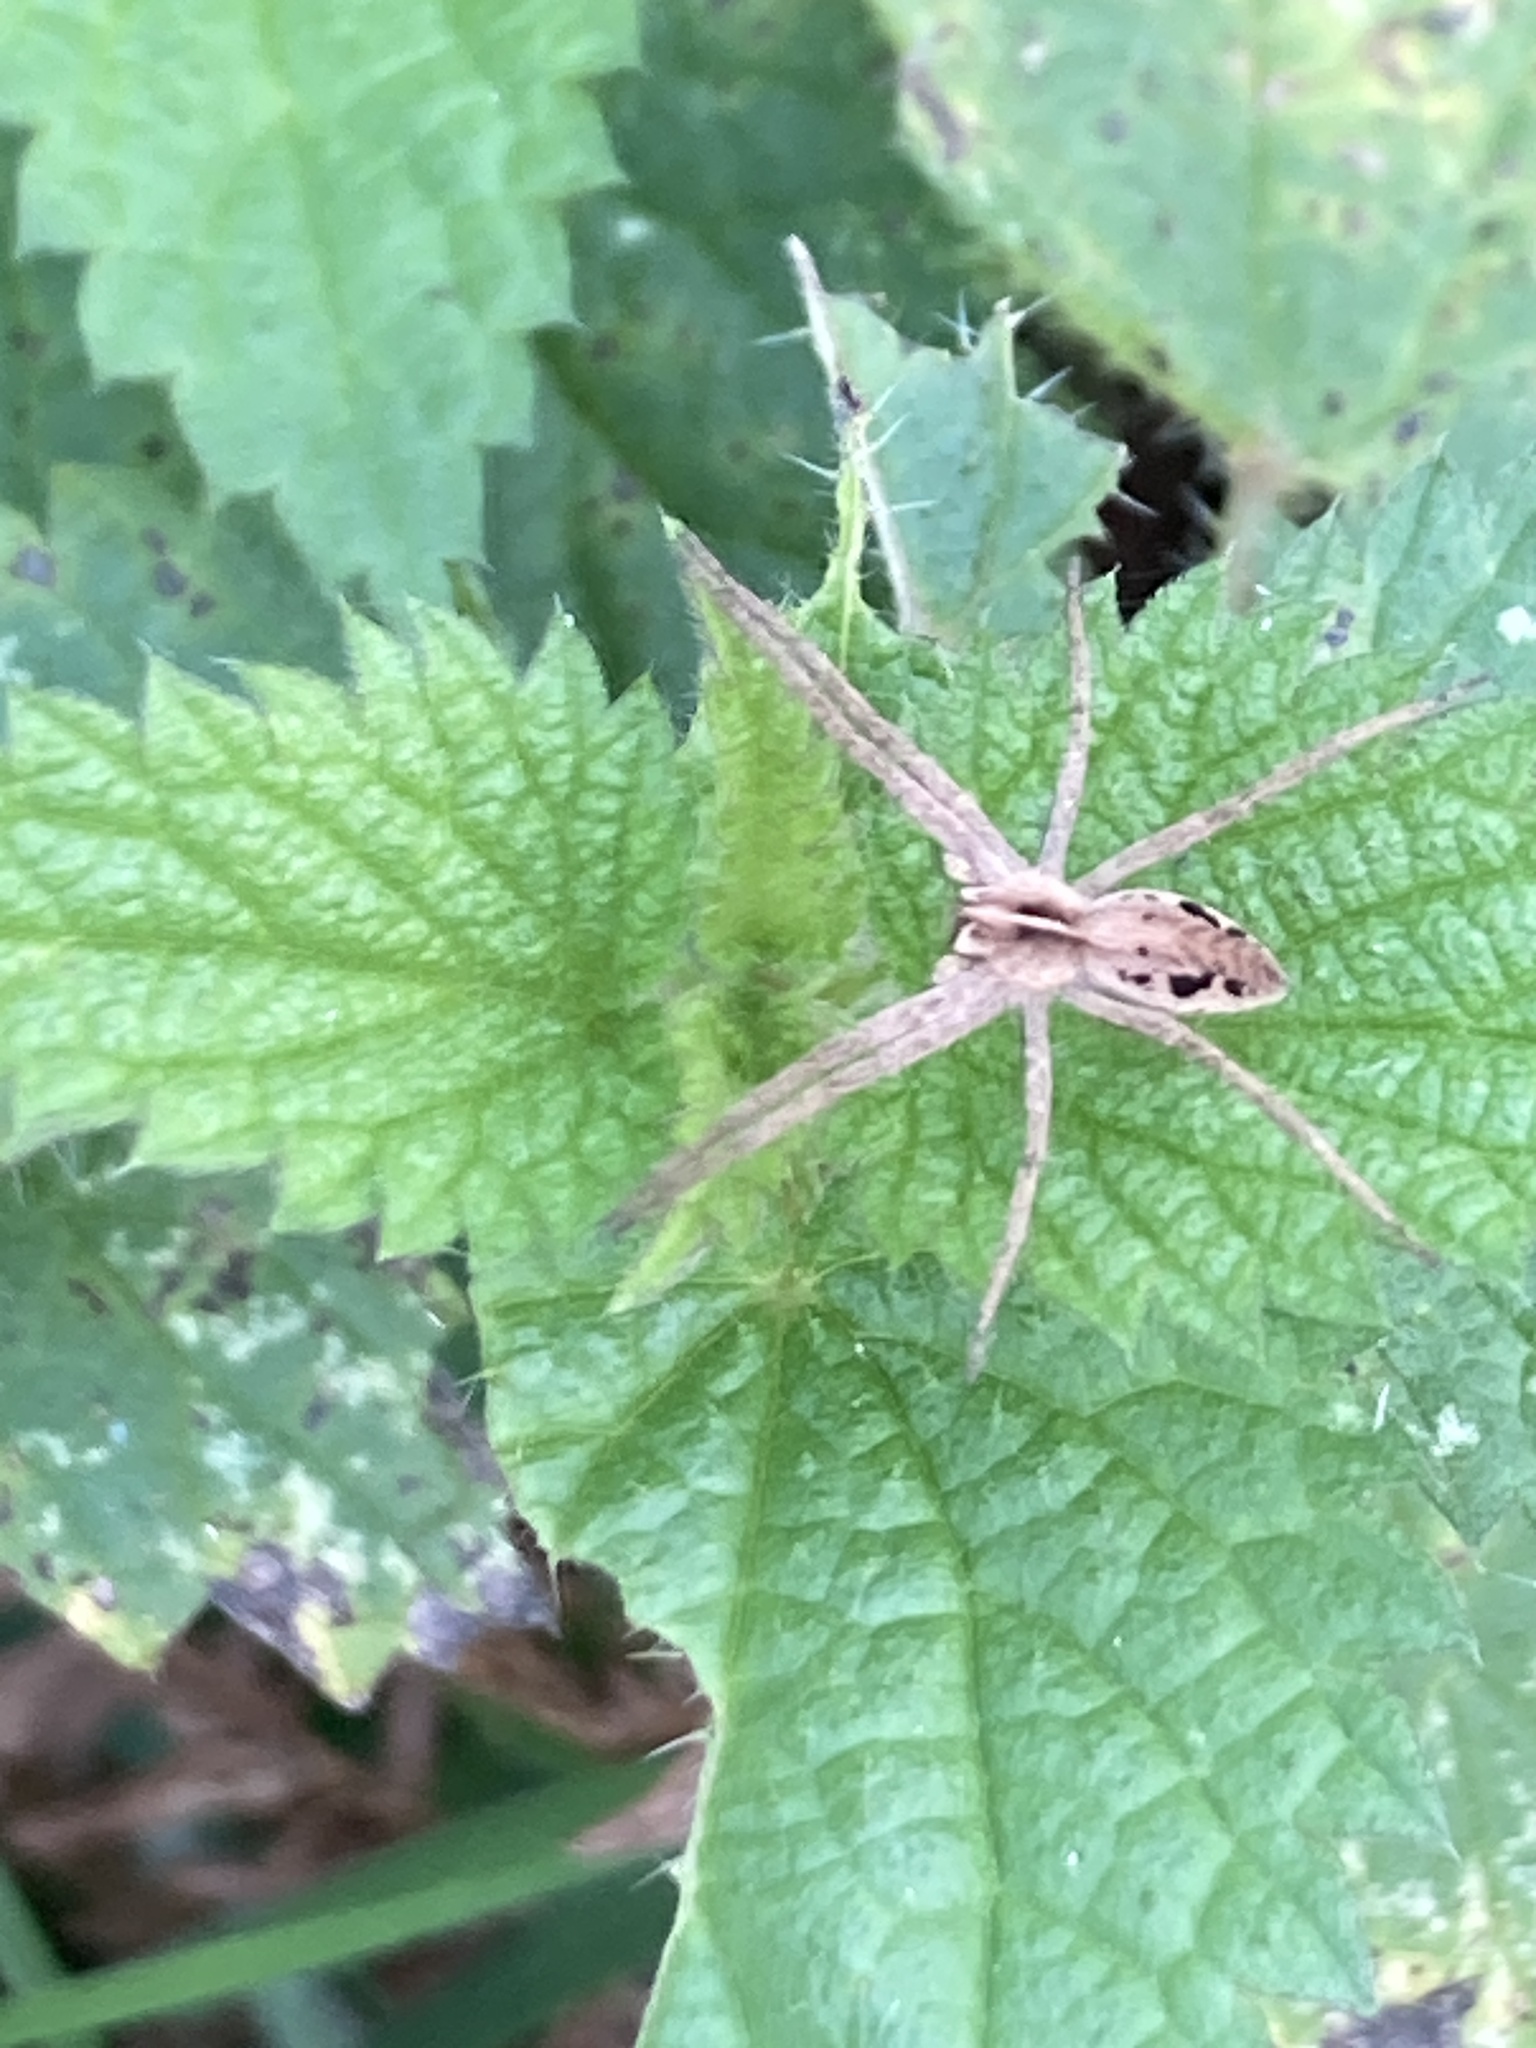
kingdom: Animalia
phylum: Arthropoda
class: Arachnida
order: Araneae
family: Pisauridae
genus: Pisaura
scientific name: Pisaura mirabilis
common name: Tent spider
